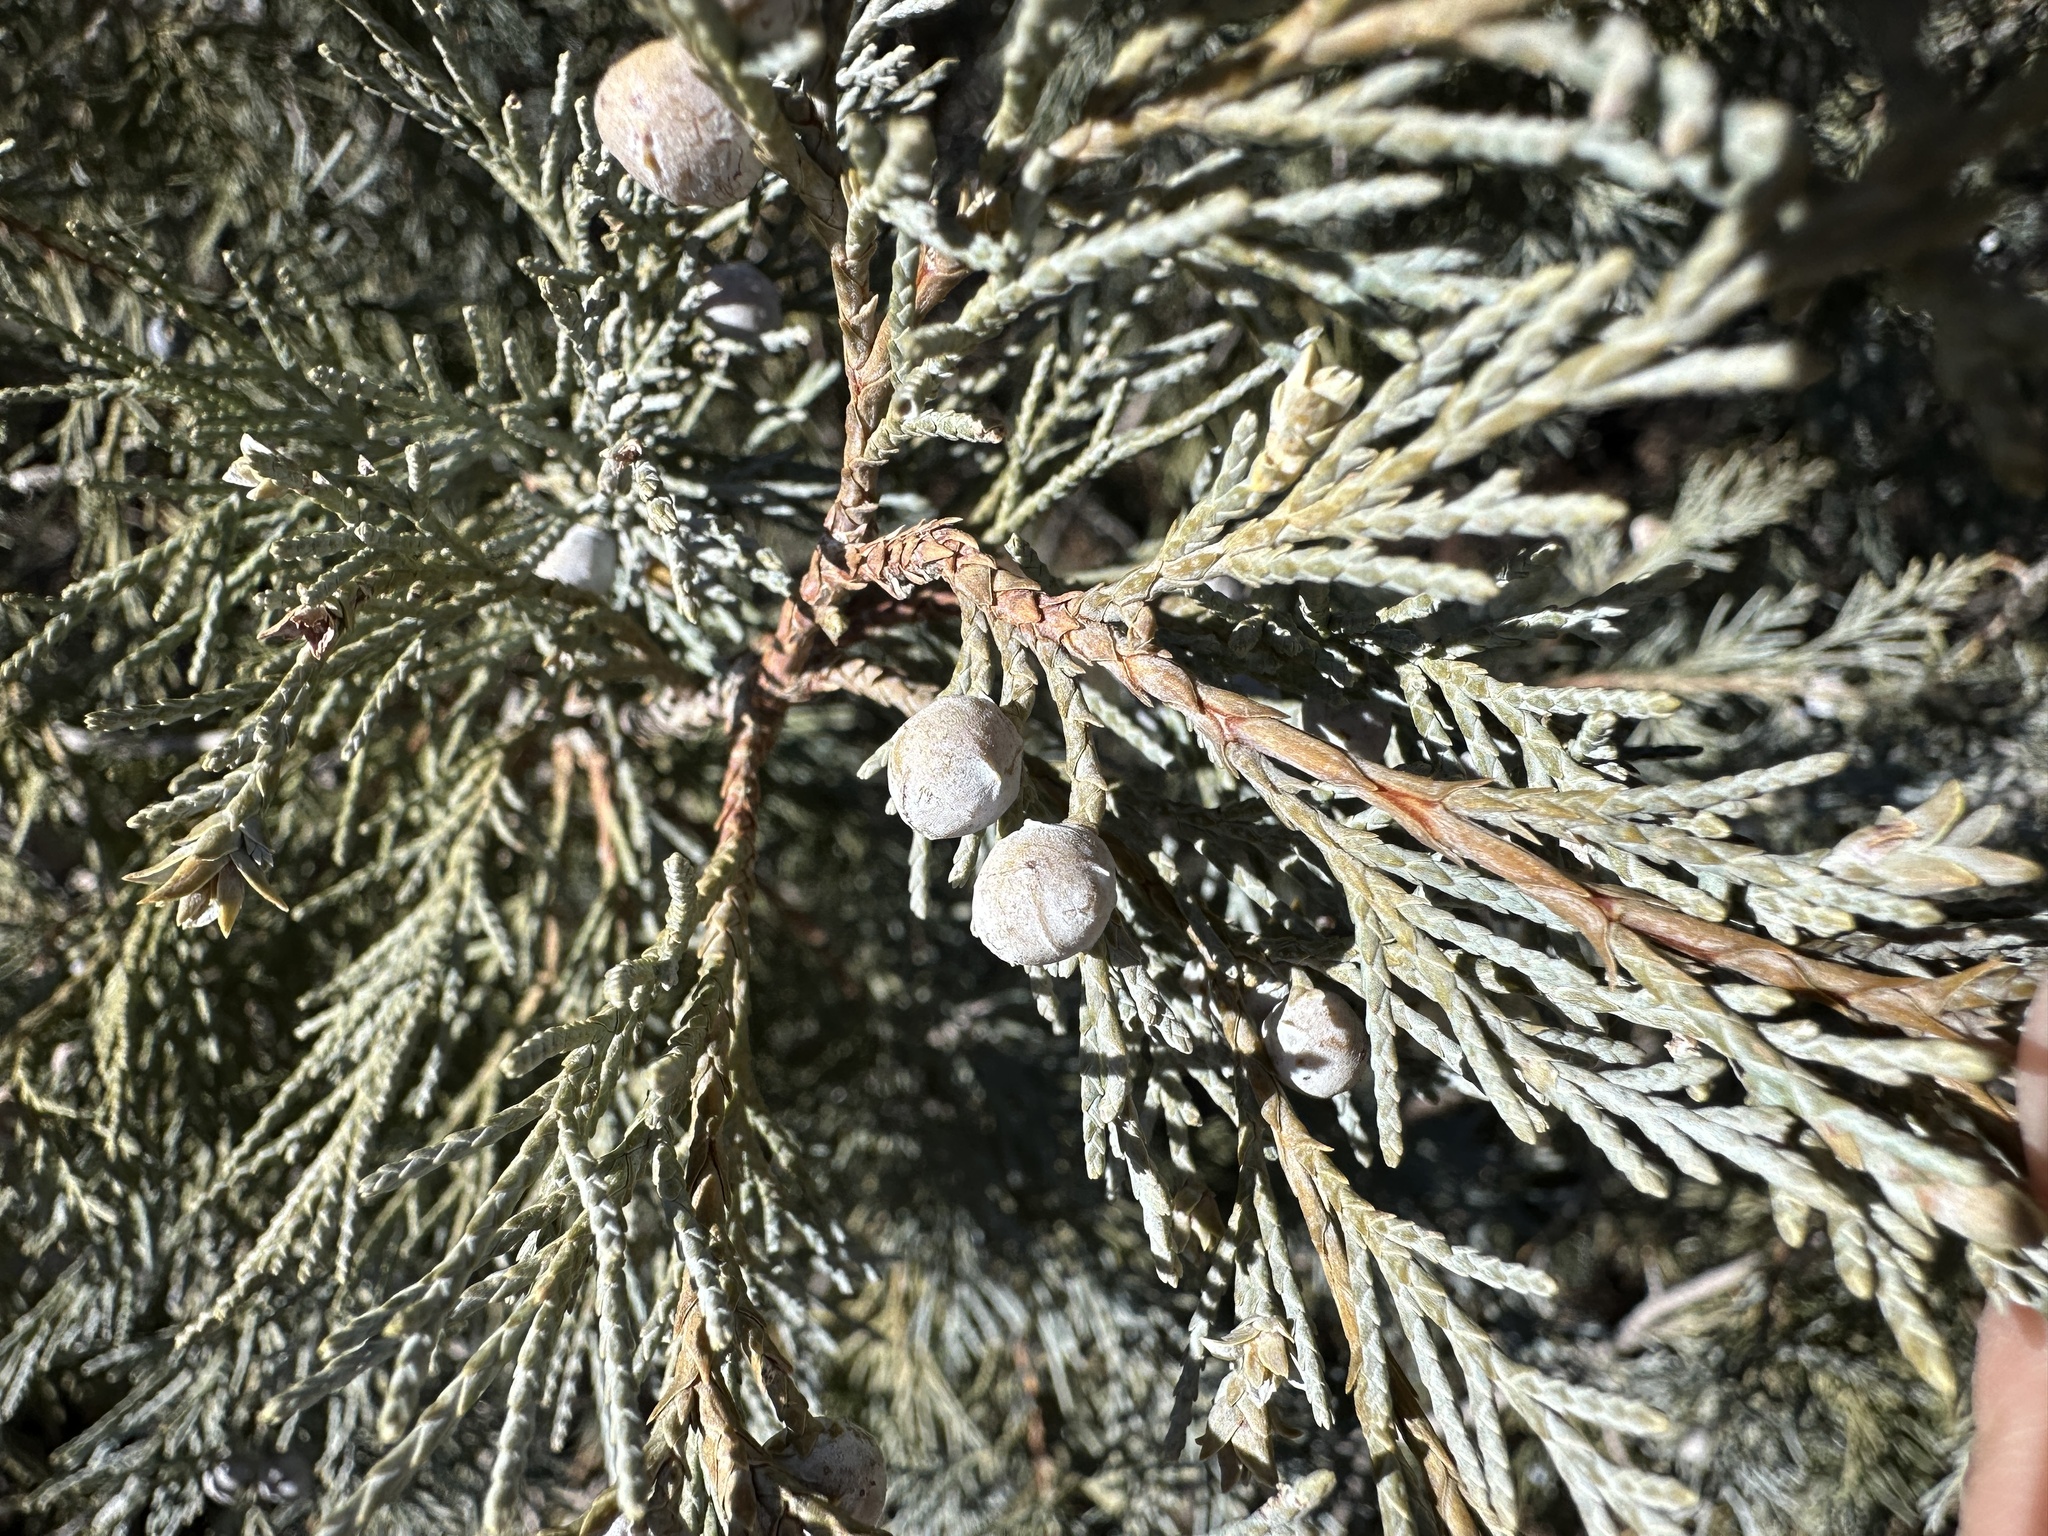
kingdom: Plantae
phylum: Tracheophyta
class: Pinopsida
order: Pinales
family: Cupressaceae
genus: Juniperus
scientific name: Juniperus scopulorum
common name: Rocky mountain juniper
